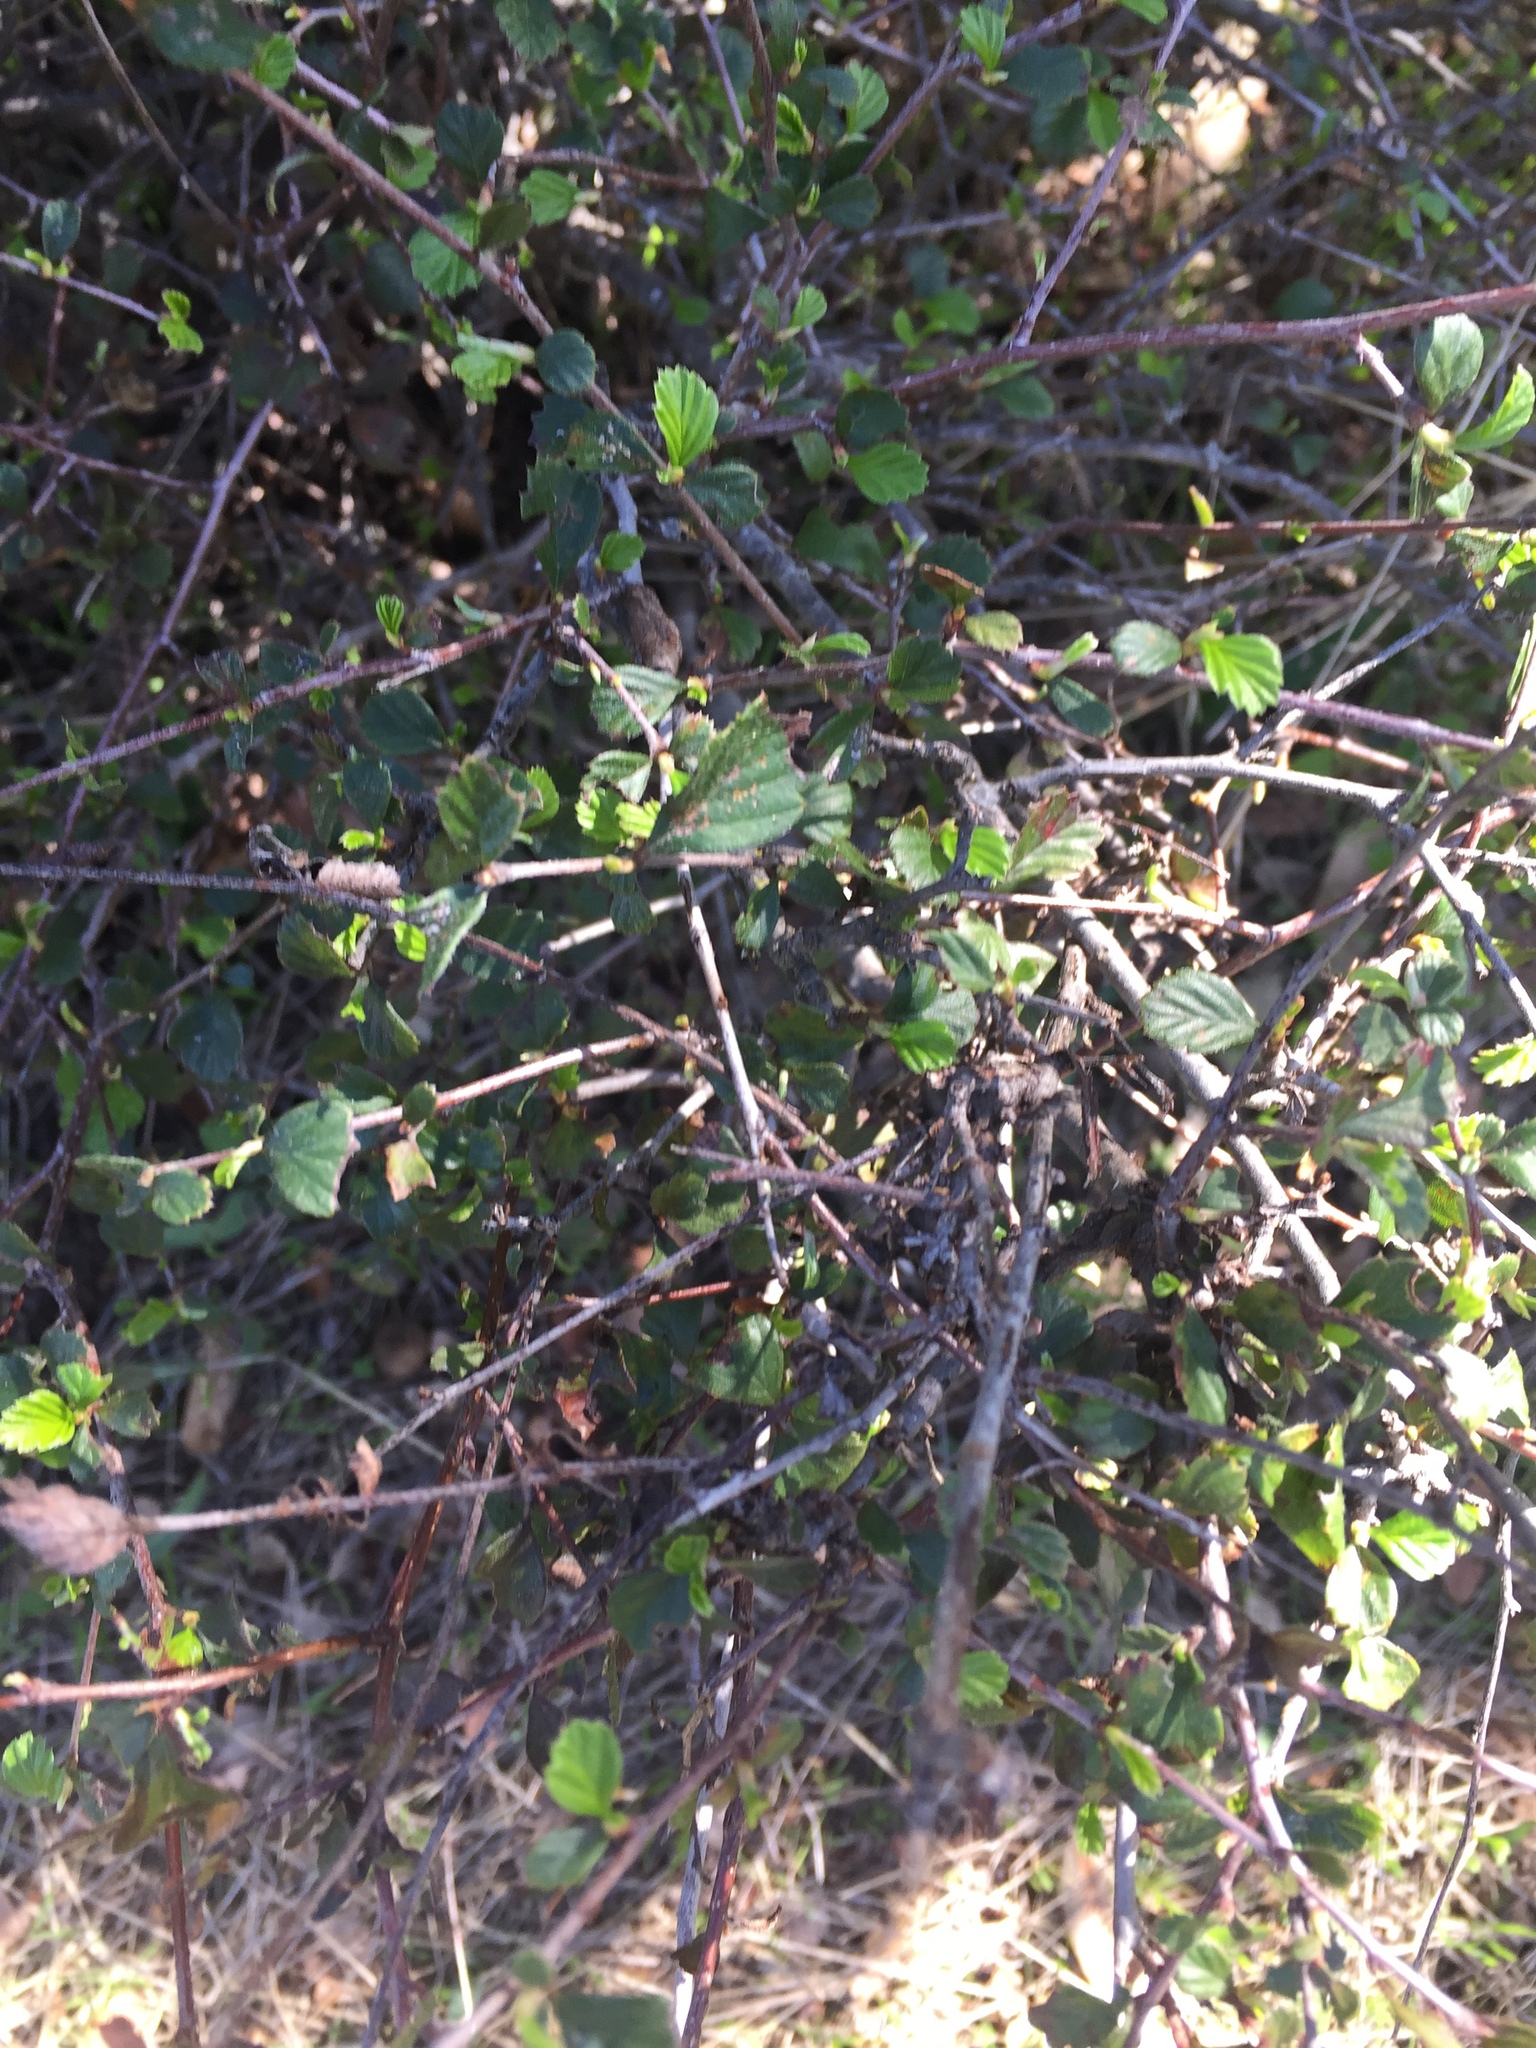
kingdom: Plantae
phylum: Tracheophyta
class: Magnoliopsida
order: Rosales
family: Rosaceae
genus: Cercocarpus
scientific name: Cercocarpus betuloides
